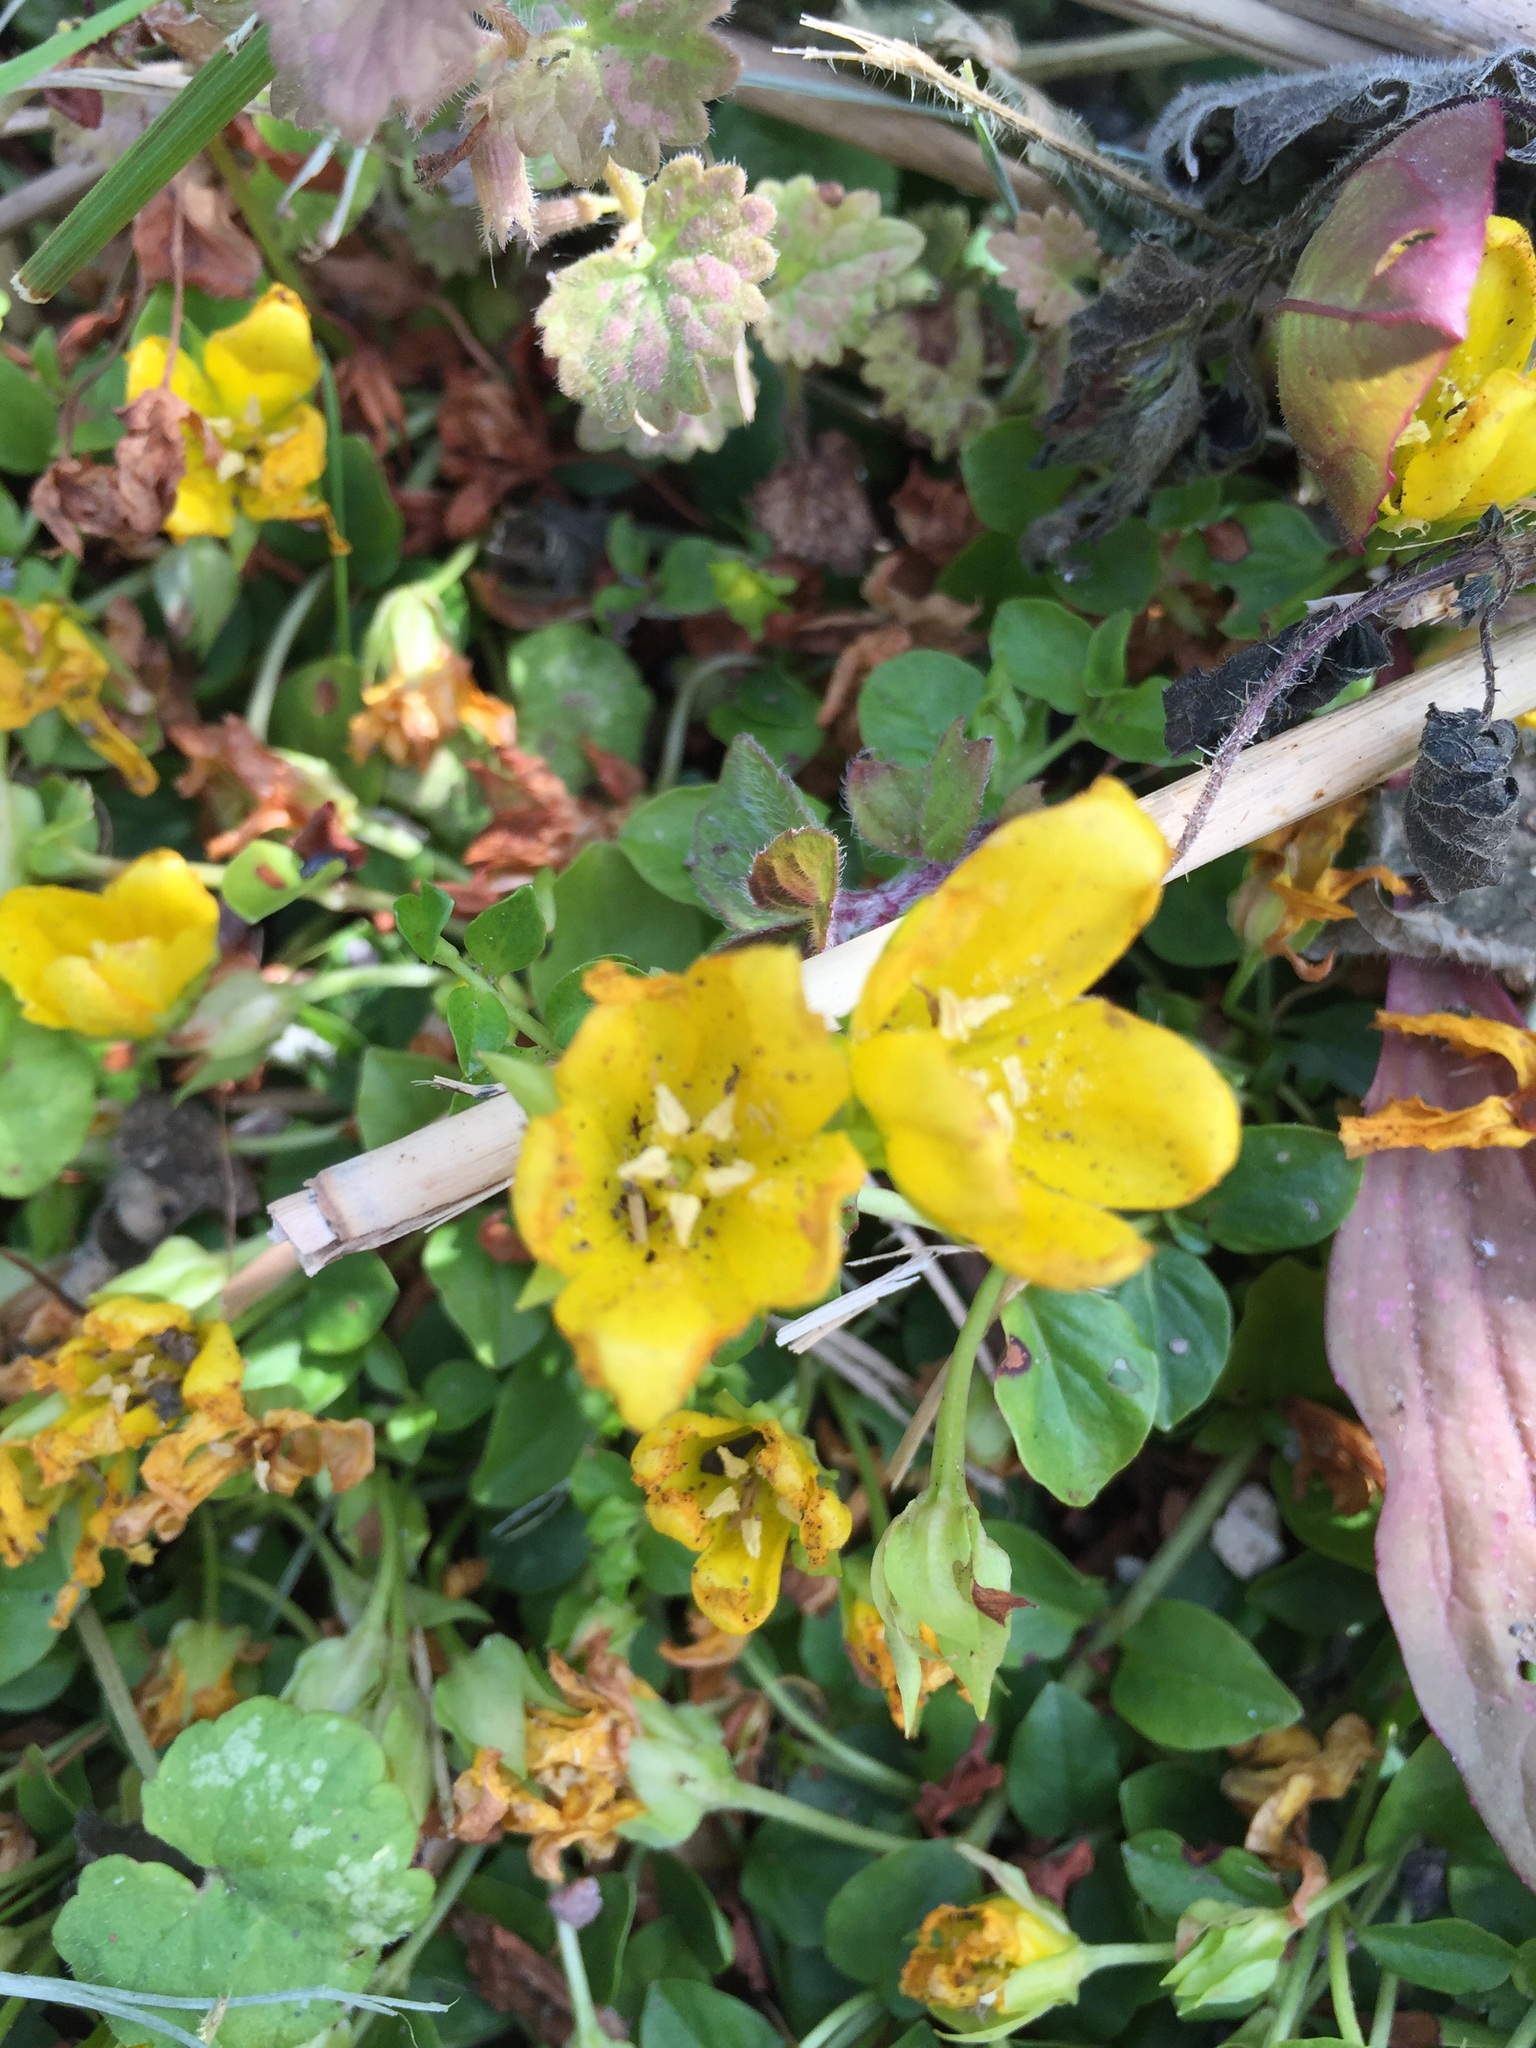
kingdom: Plantae
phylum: Tracheophyta
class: Magnoliopsida
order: Ericales
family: Primulaceae
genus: Lysimachia
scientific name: Lysimachia nummularia
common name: Moneywort
